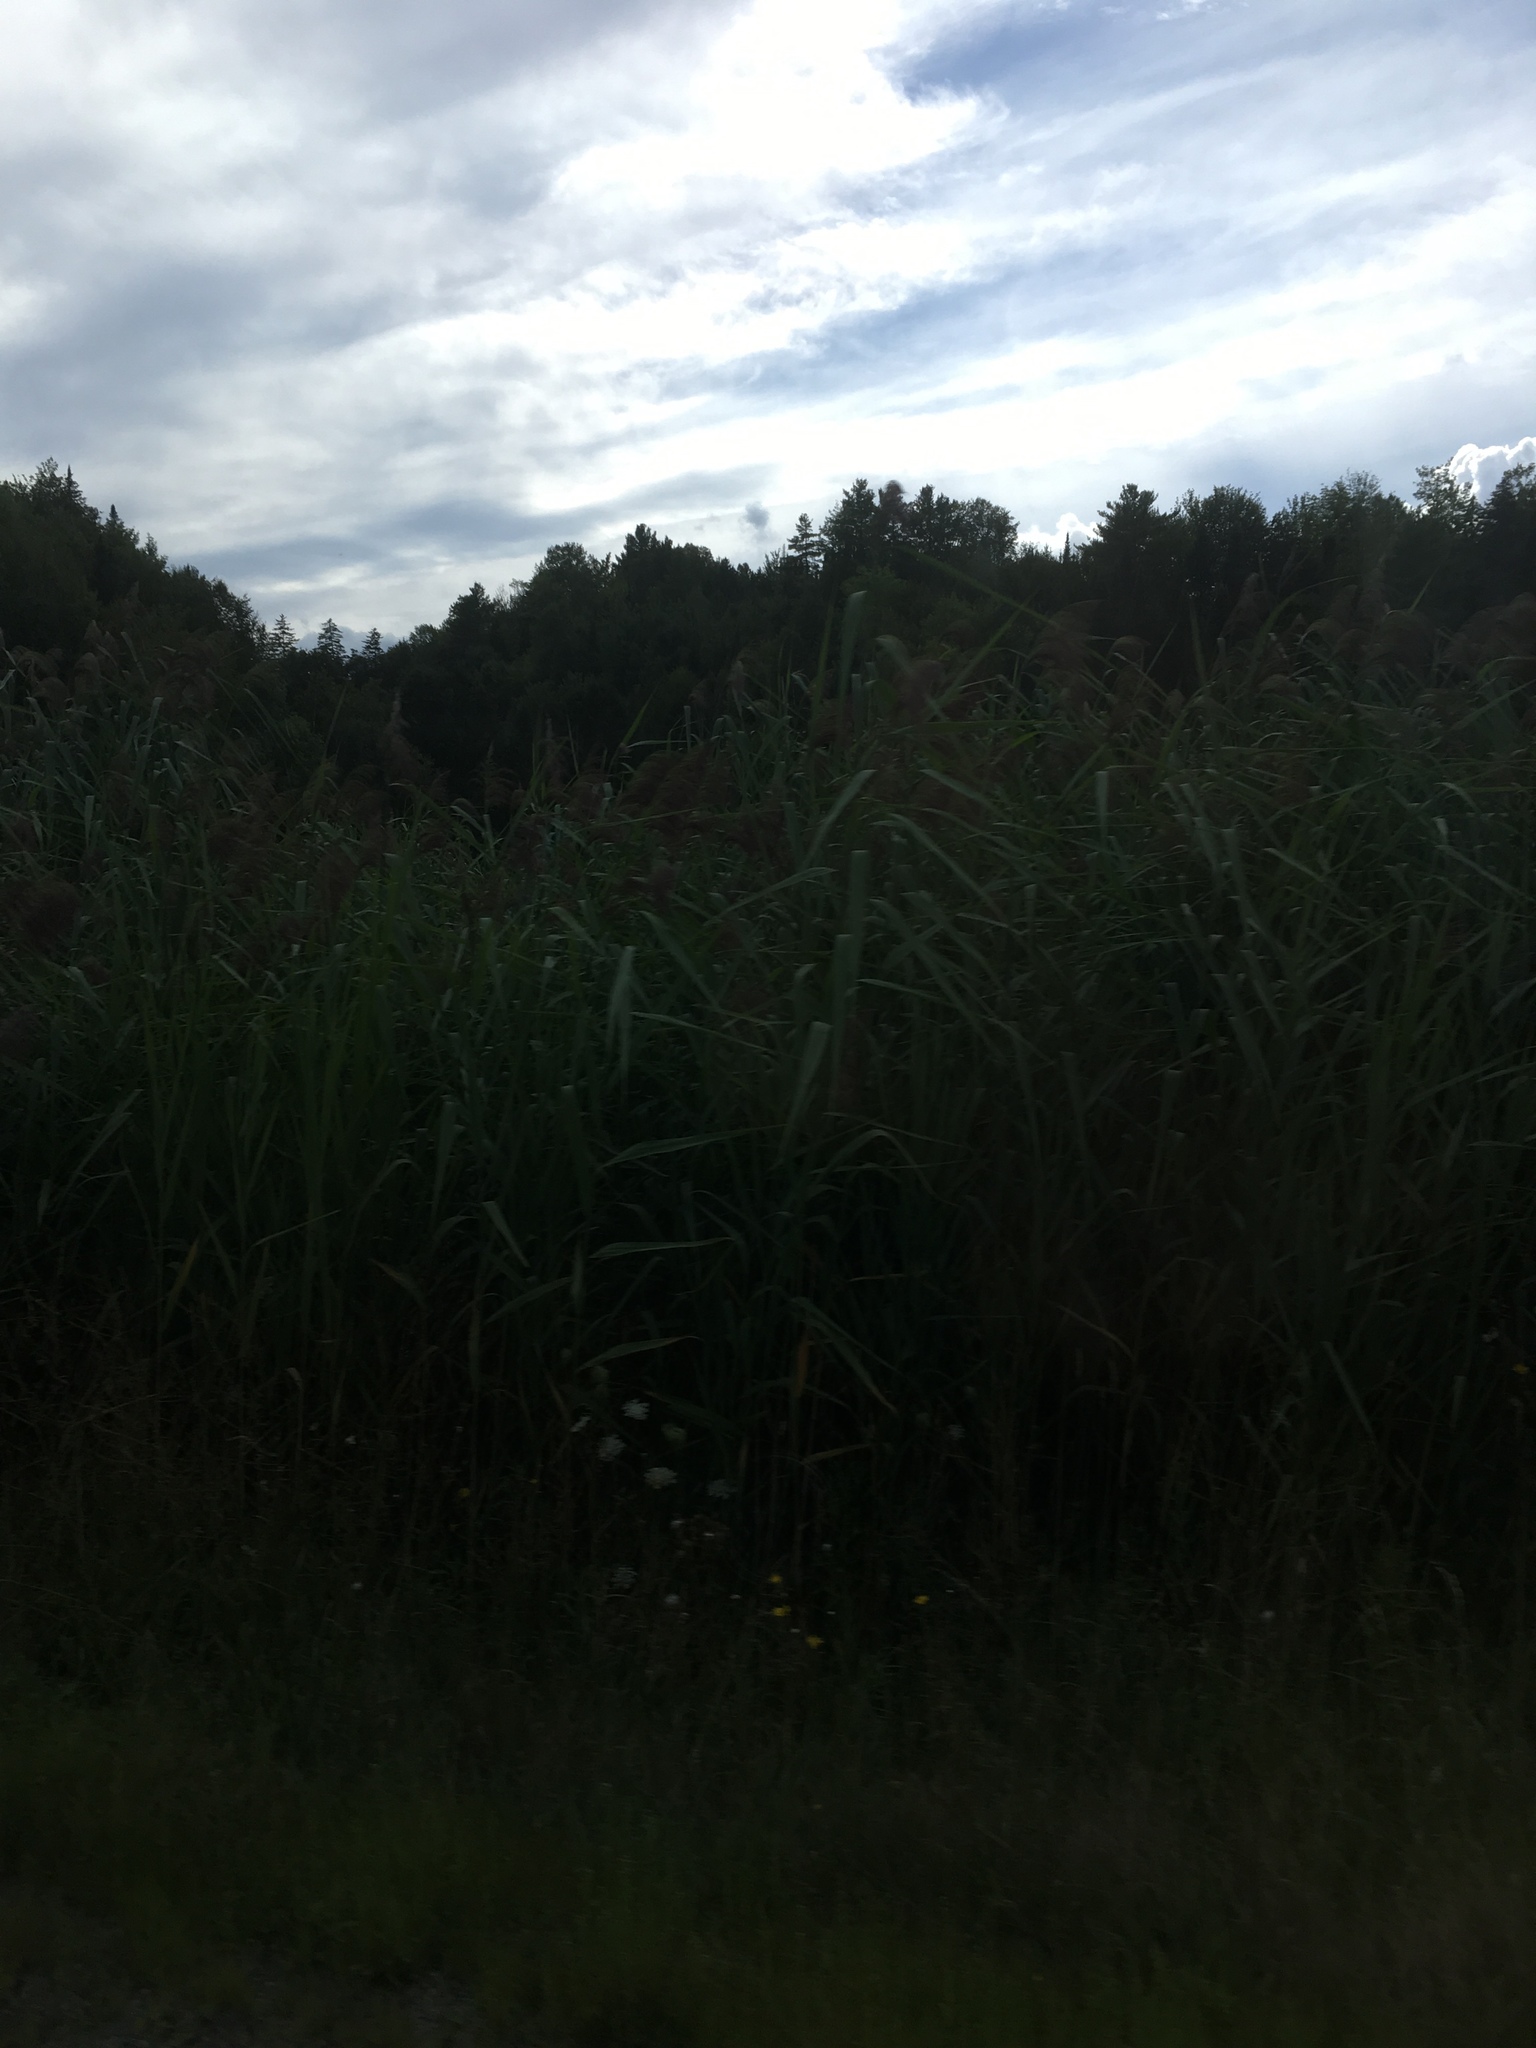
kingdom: Plantae
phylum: Tracheophyta
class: Liliopsida
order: Poales
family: Poaceae
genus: Phragmites
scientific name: Phragmites australis
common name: Common reed
